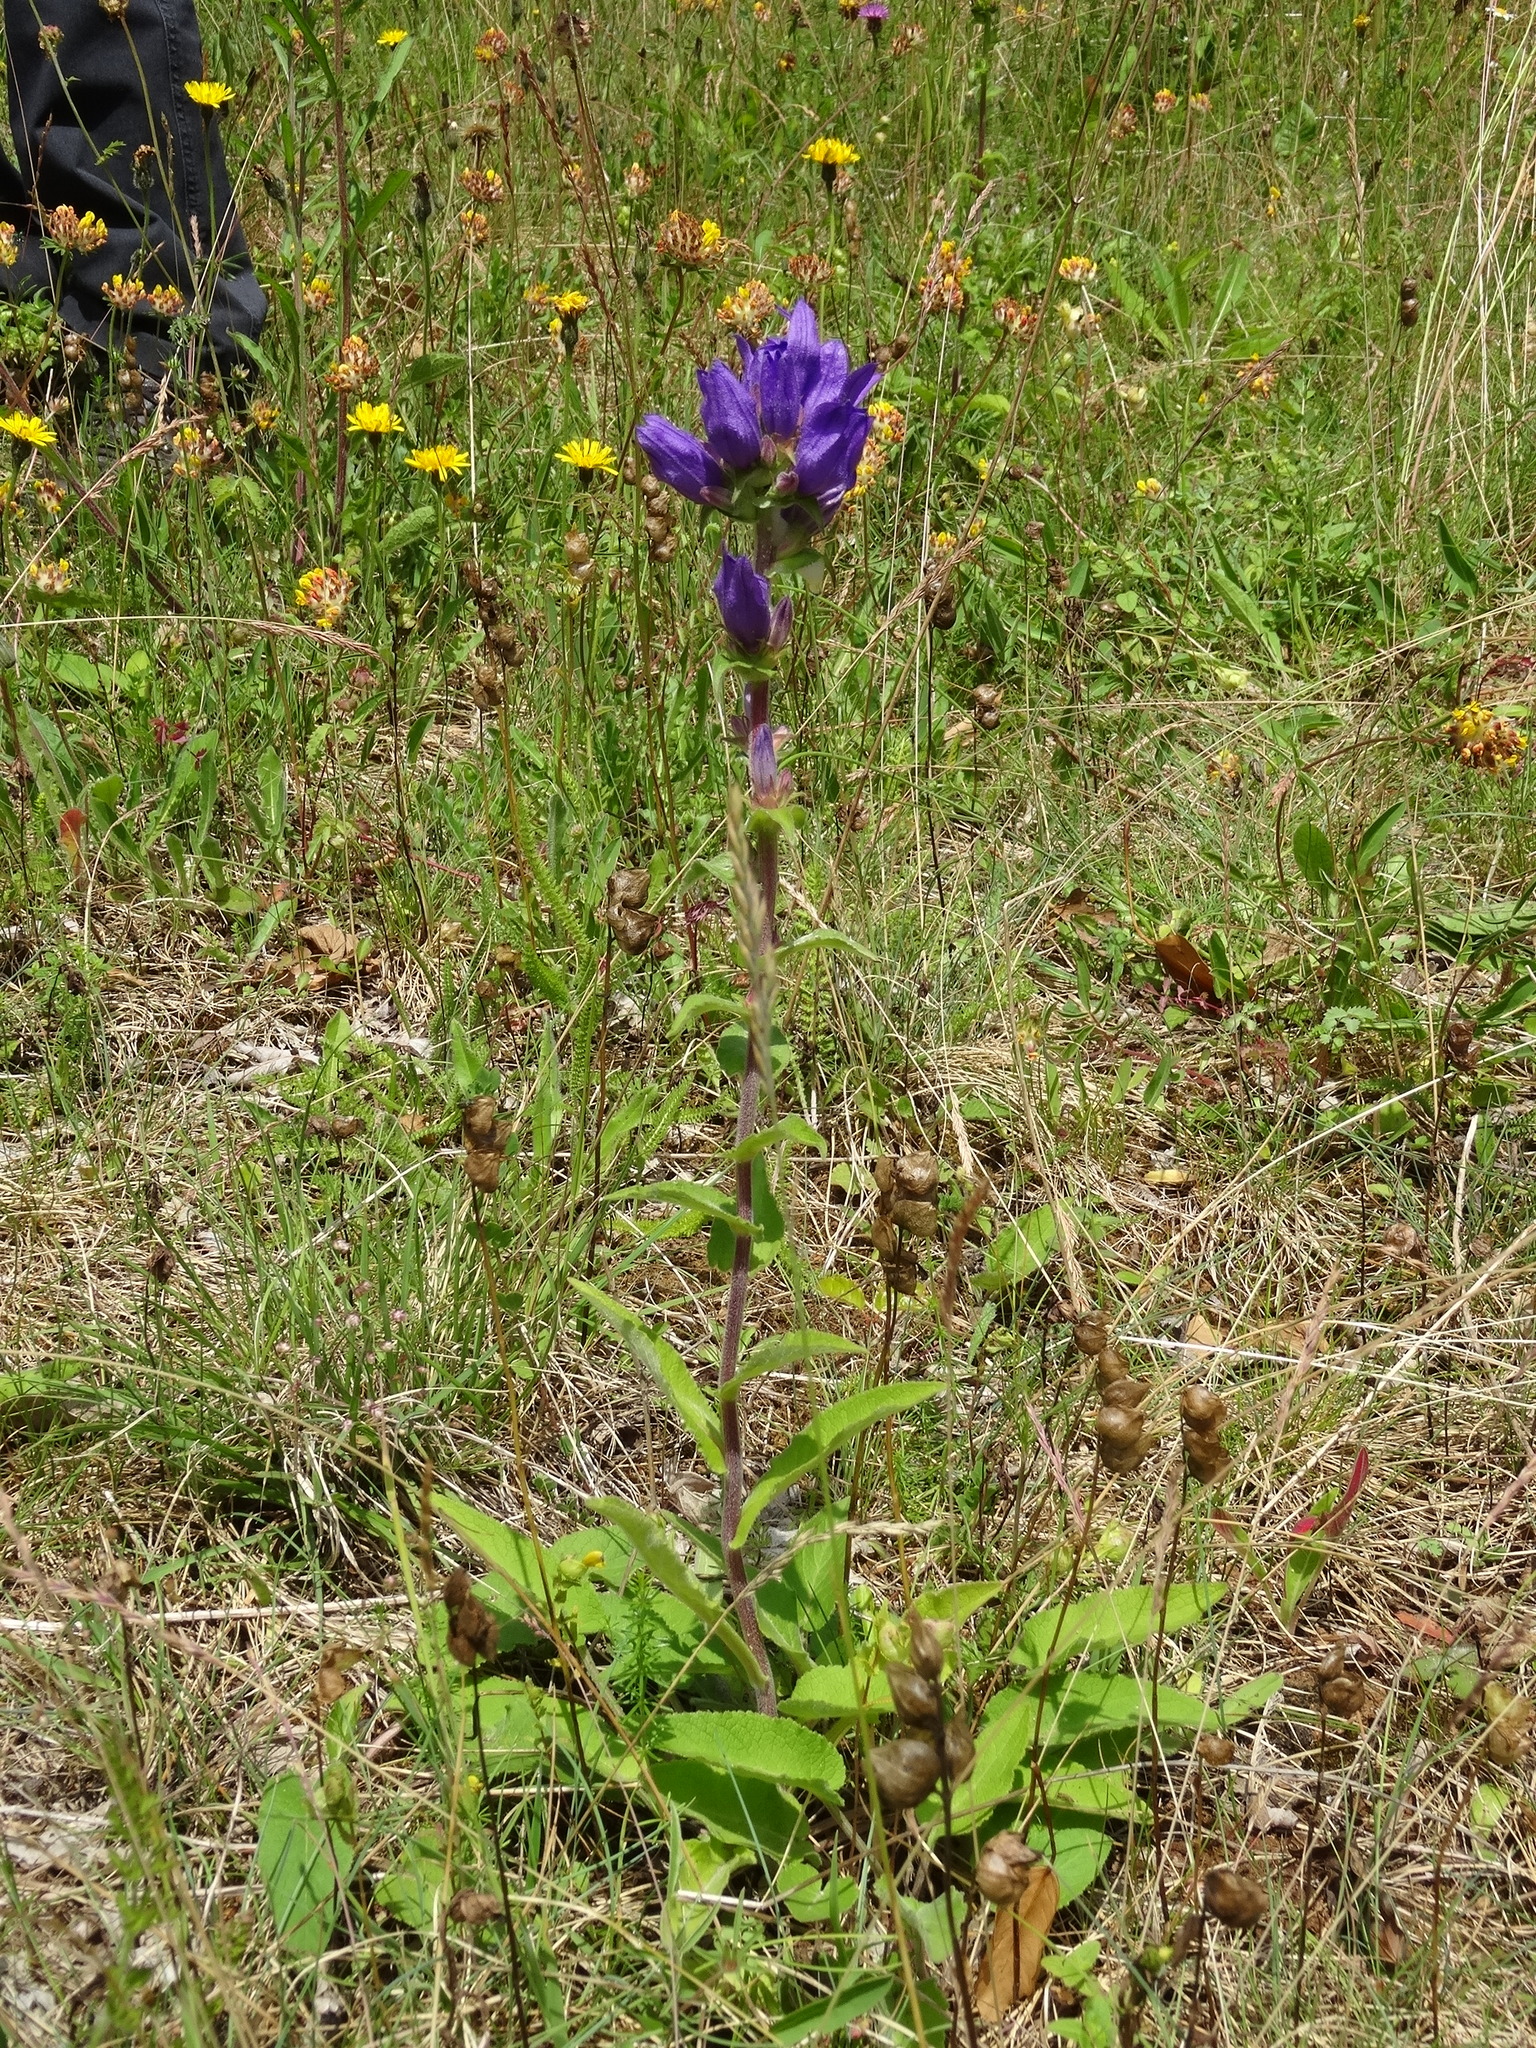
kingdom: Plantae
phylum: Tracheophyta
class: Magnoliopsida
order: Asterales
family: Campanulaceae
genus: Campanula
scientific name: Campanula glomerata
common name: Clustered bellflower
